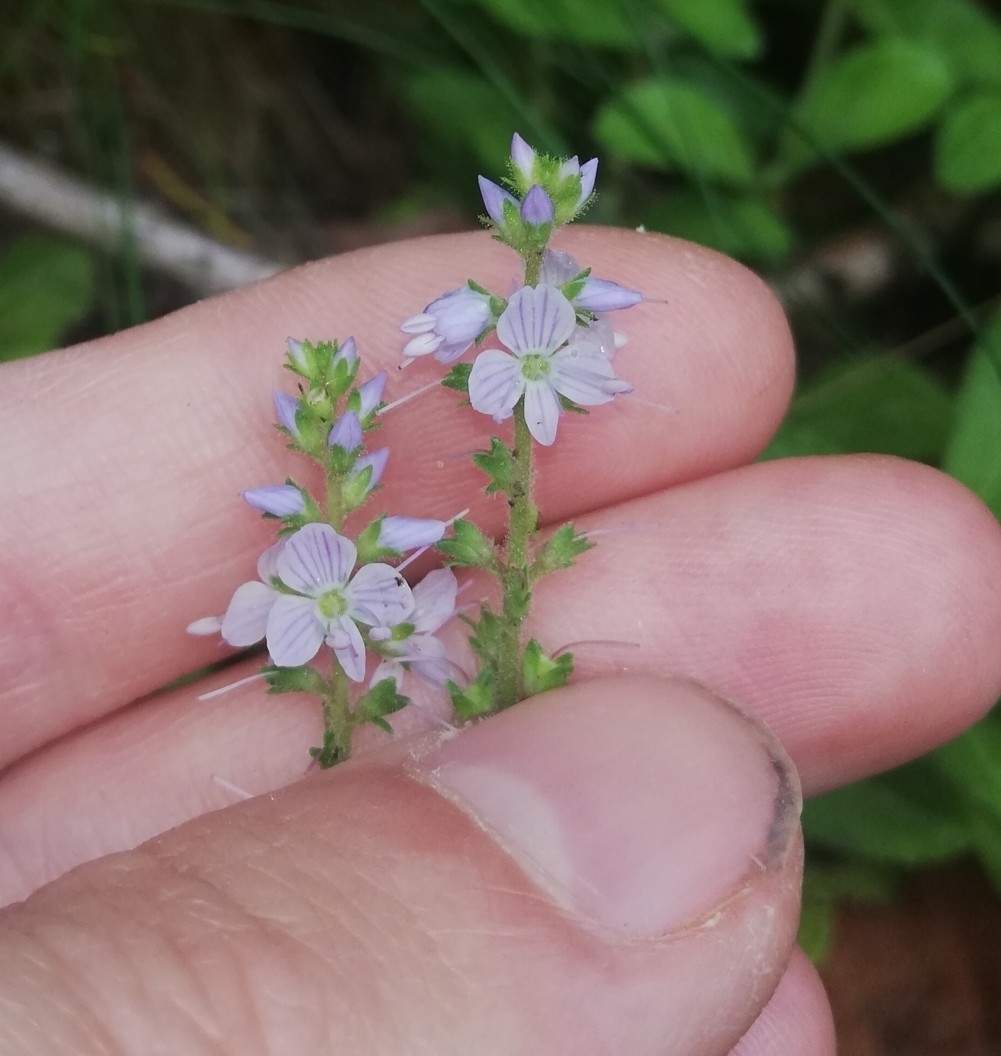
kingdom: Plantae
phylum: Tracheophyta
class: Magnoliopsida
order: Lamiales
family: Plantaginaceae
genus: Veronica
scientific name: Veronica officinalis
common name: Common speedwell
